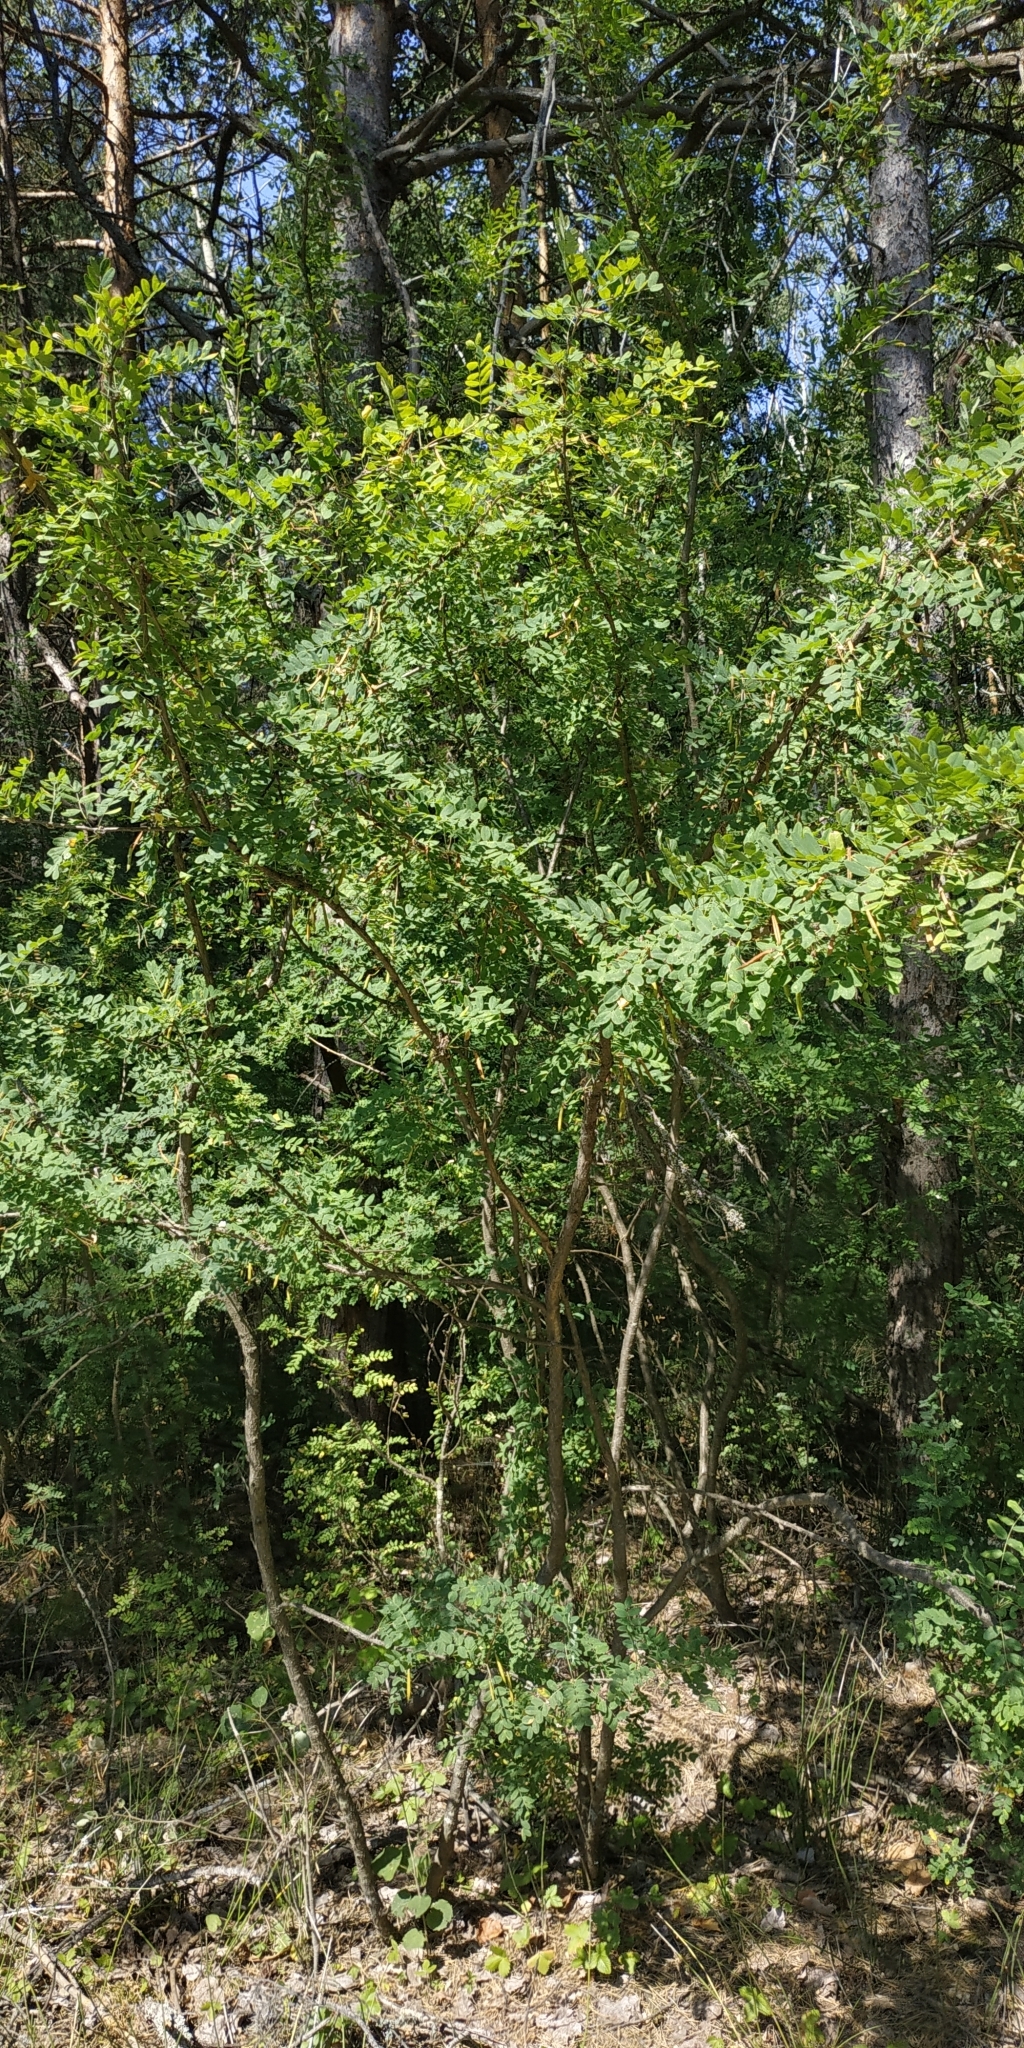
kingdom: Plantae
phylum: Tracheophyta
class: Magnoliopsida
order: Fabales
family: Fabaceae
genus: Caragana
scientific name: Caragana arborescens
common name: Siberian peashrub
